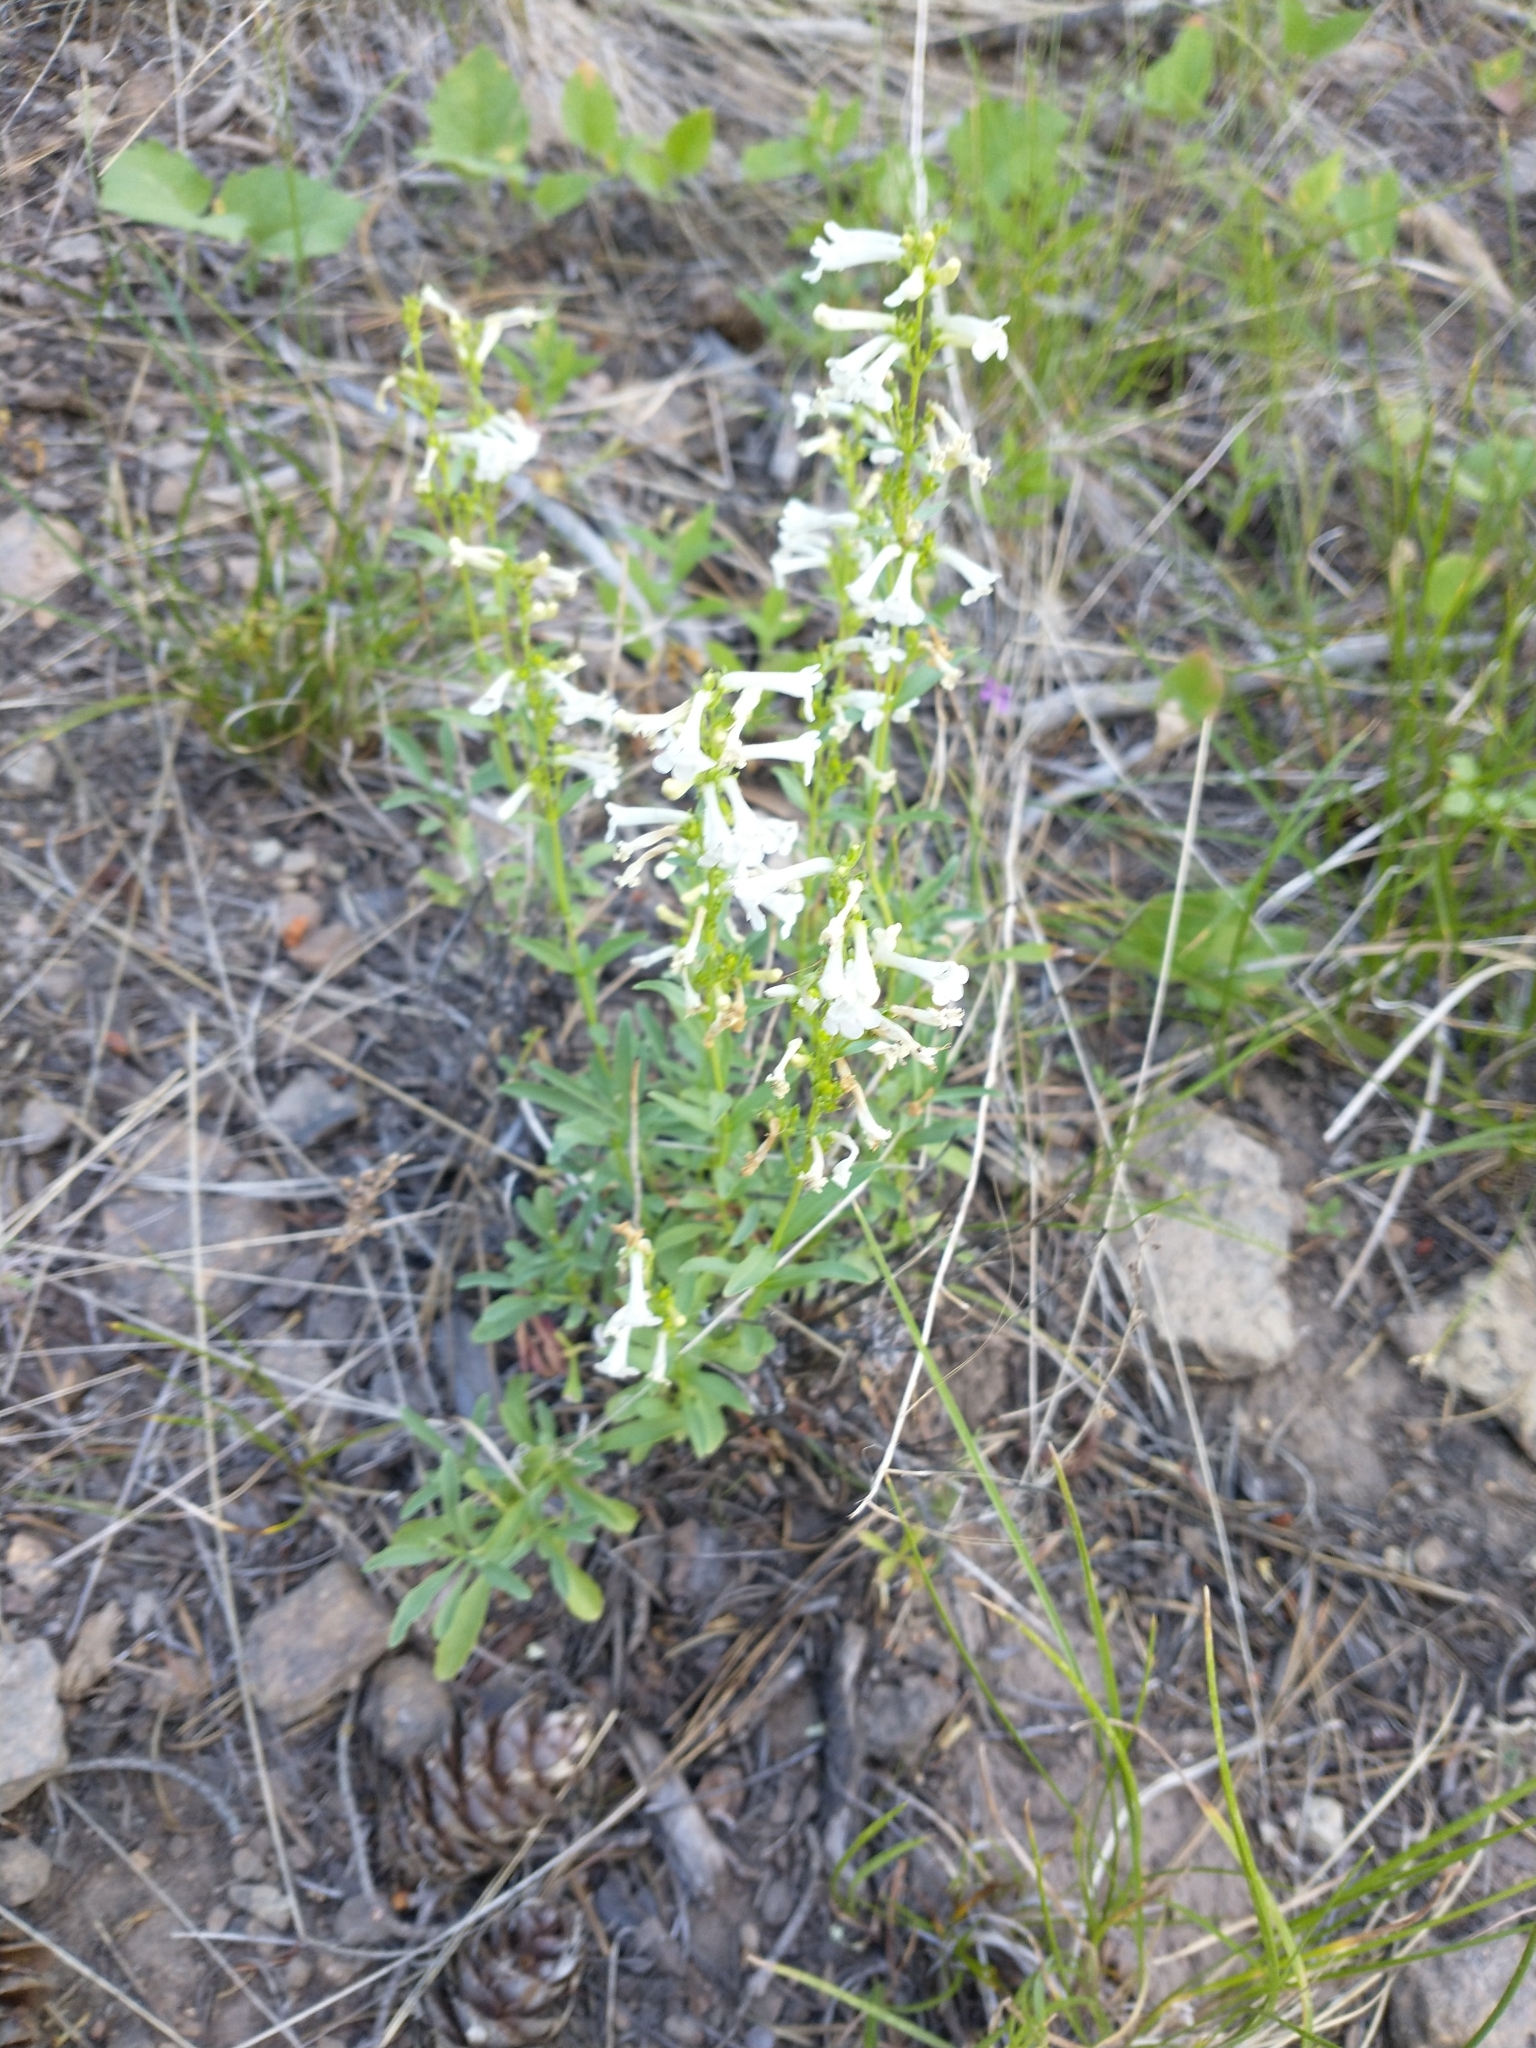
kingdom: Plantae
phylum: Tracheophyta
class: Magnoliopsida
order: Lamiales
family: Plantaginaceae
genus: Penstemon
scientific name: Penstemon deustus
